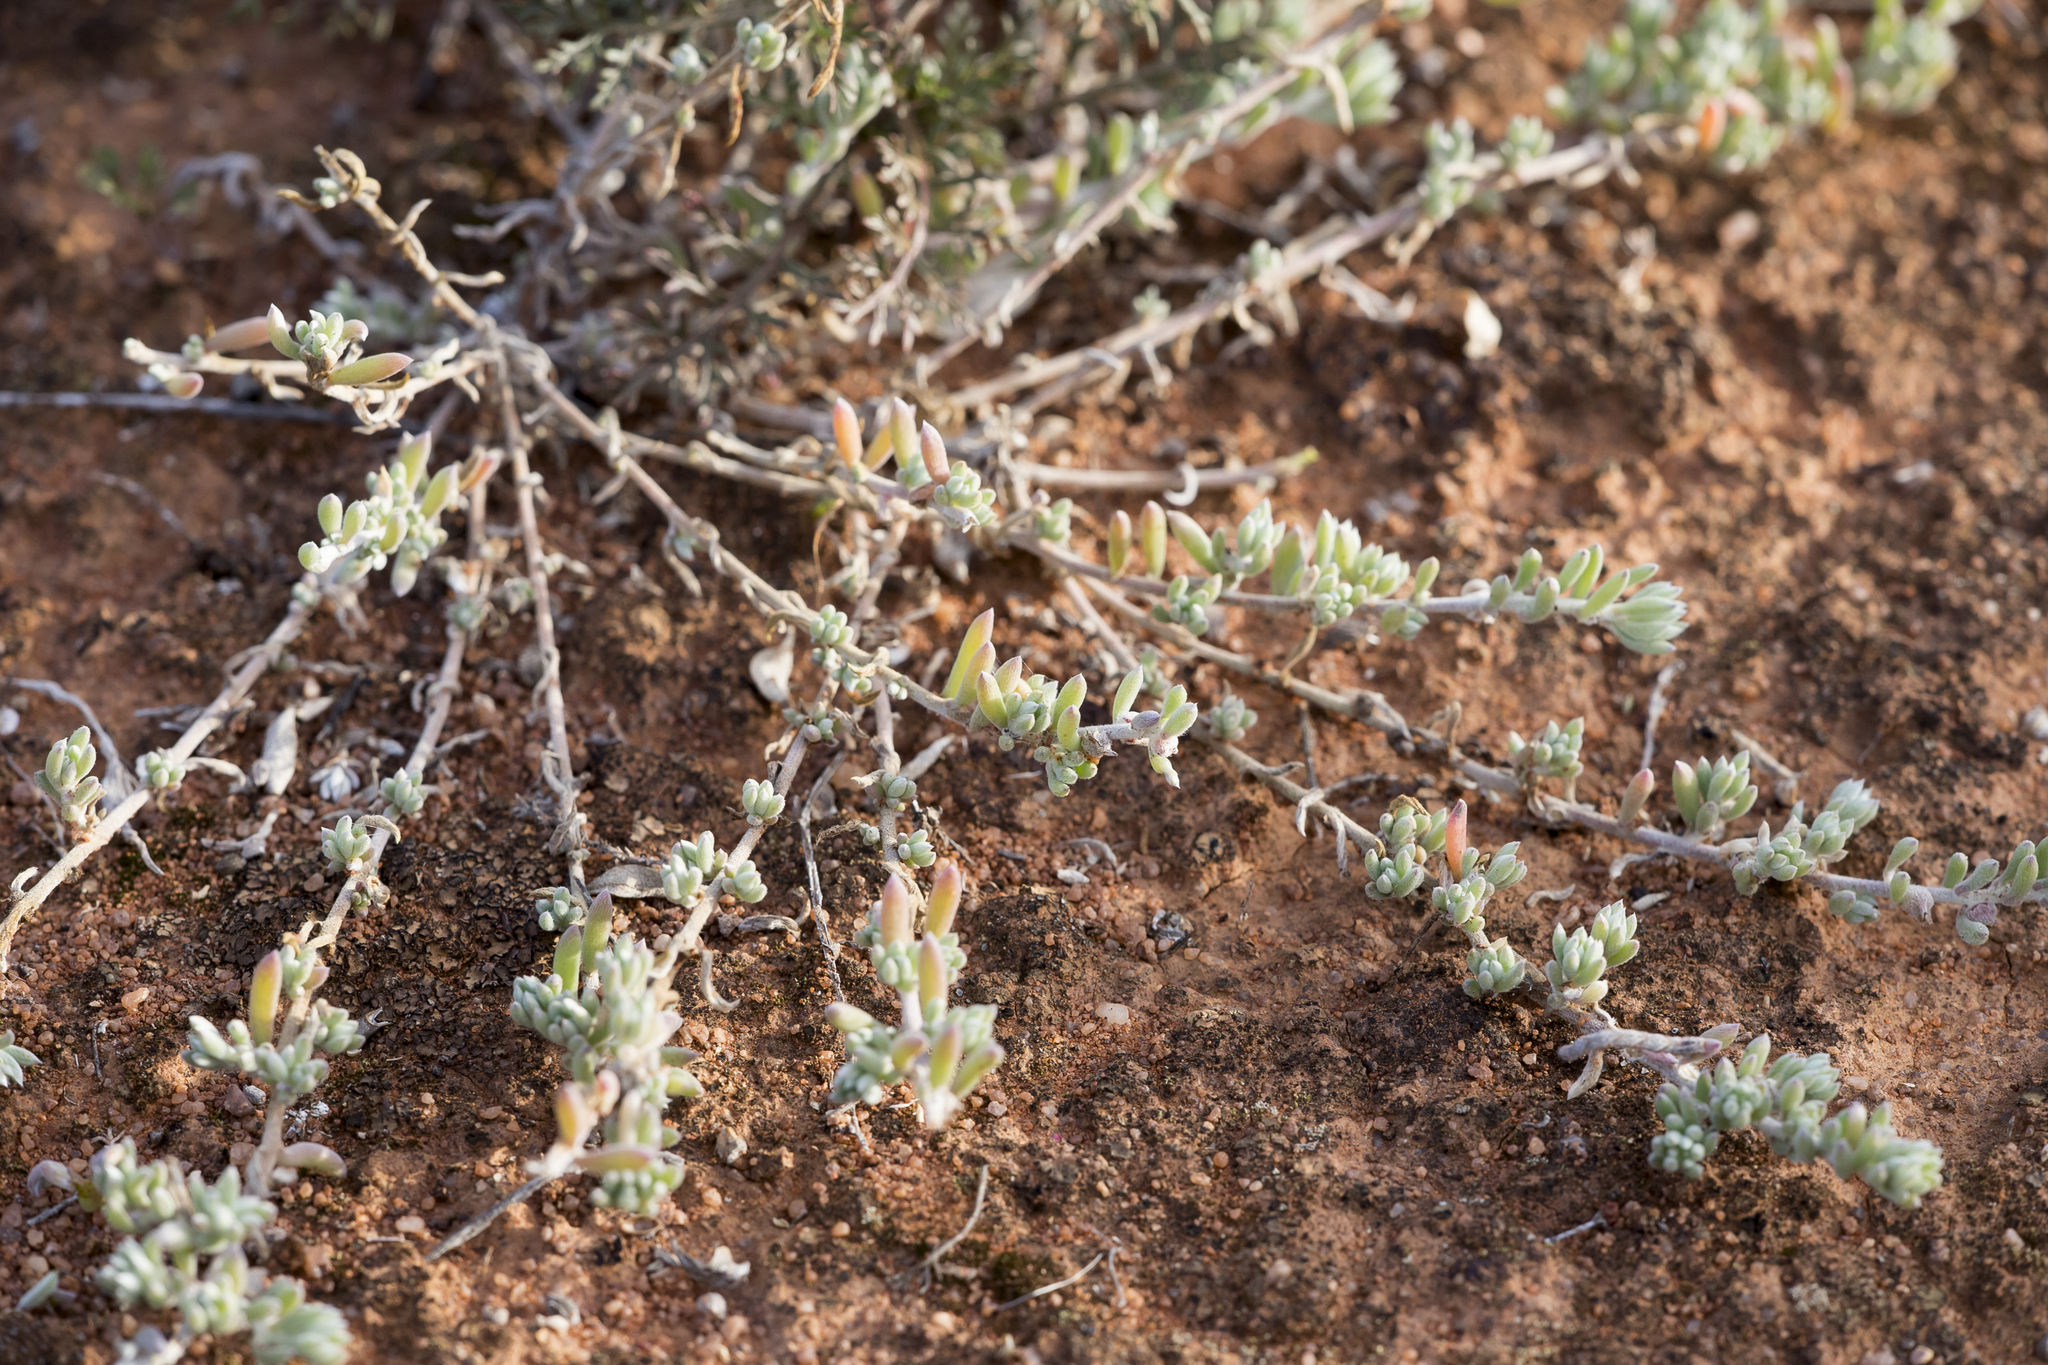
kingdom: Plantae
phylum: Tracheophyta
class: Magnoliopsida
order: Caryophyllales
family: Amaranthaceae
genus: Sclerolaena
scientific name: Sclerolaena diacantha
